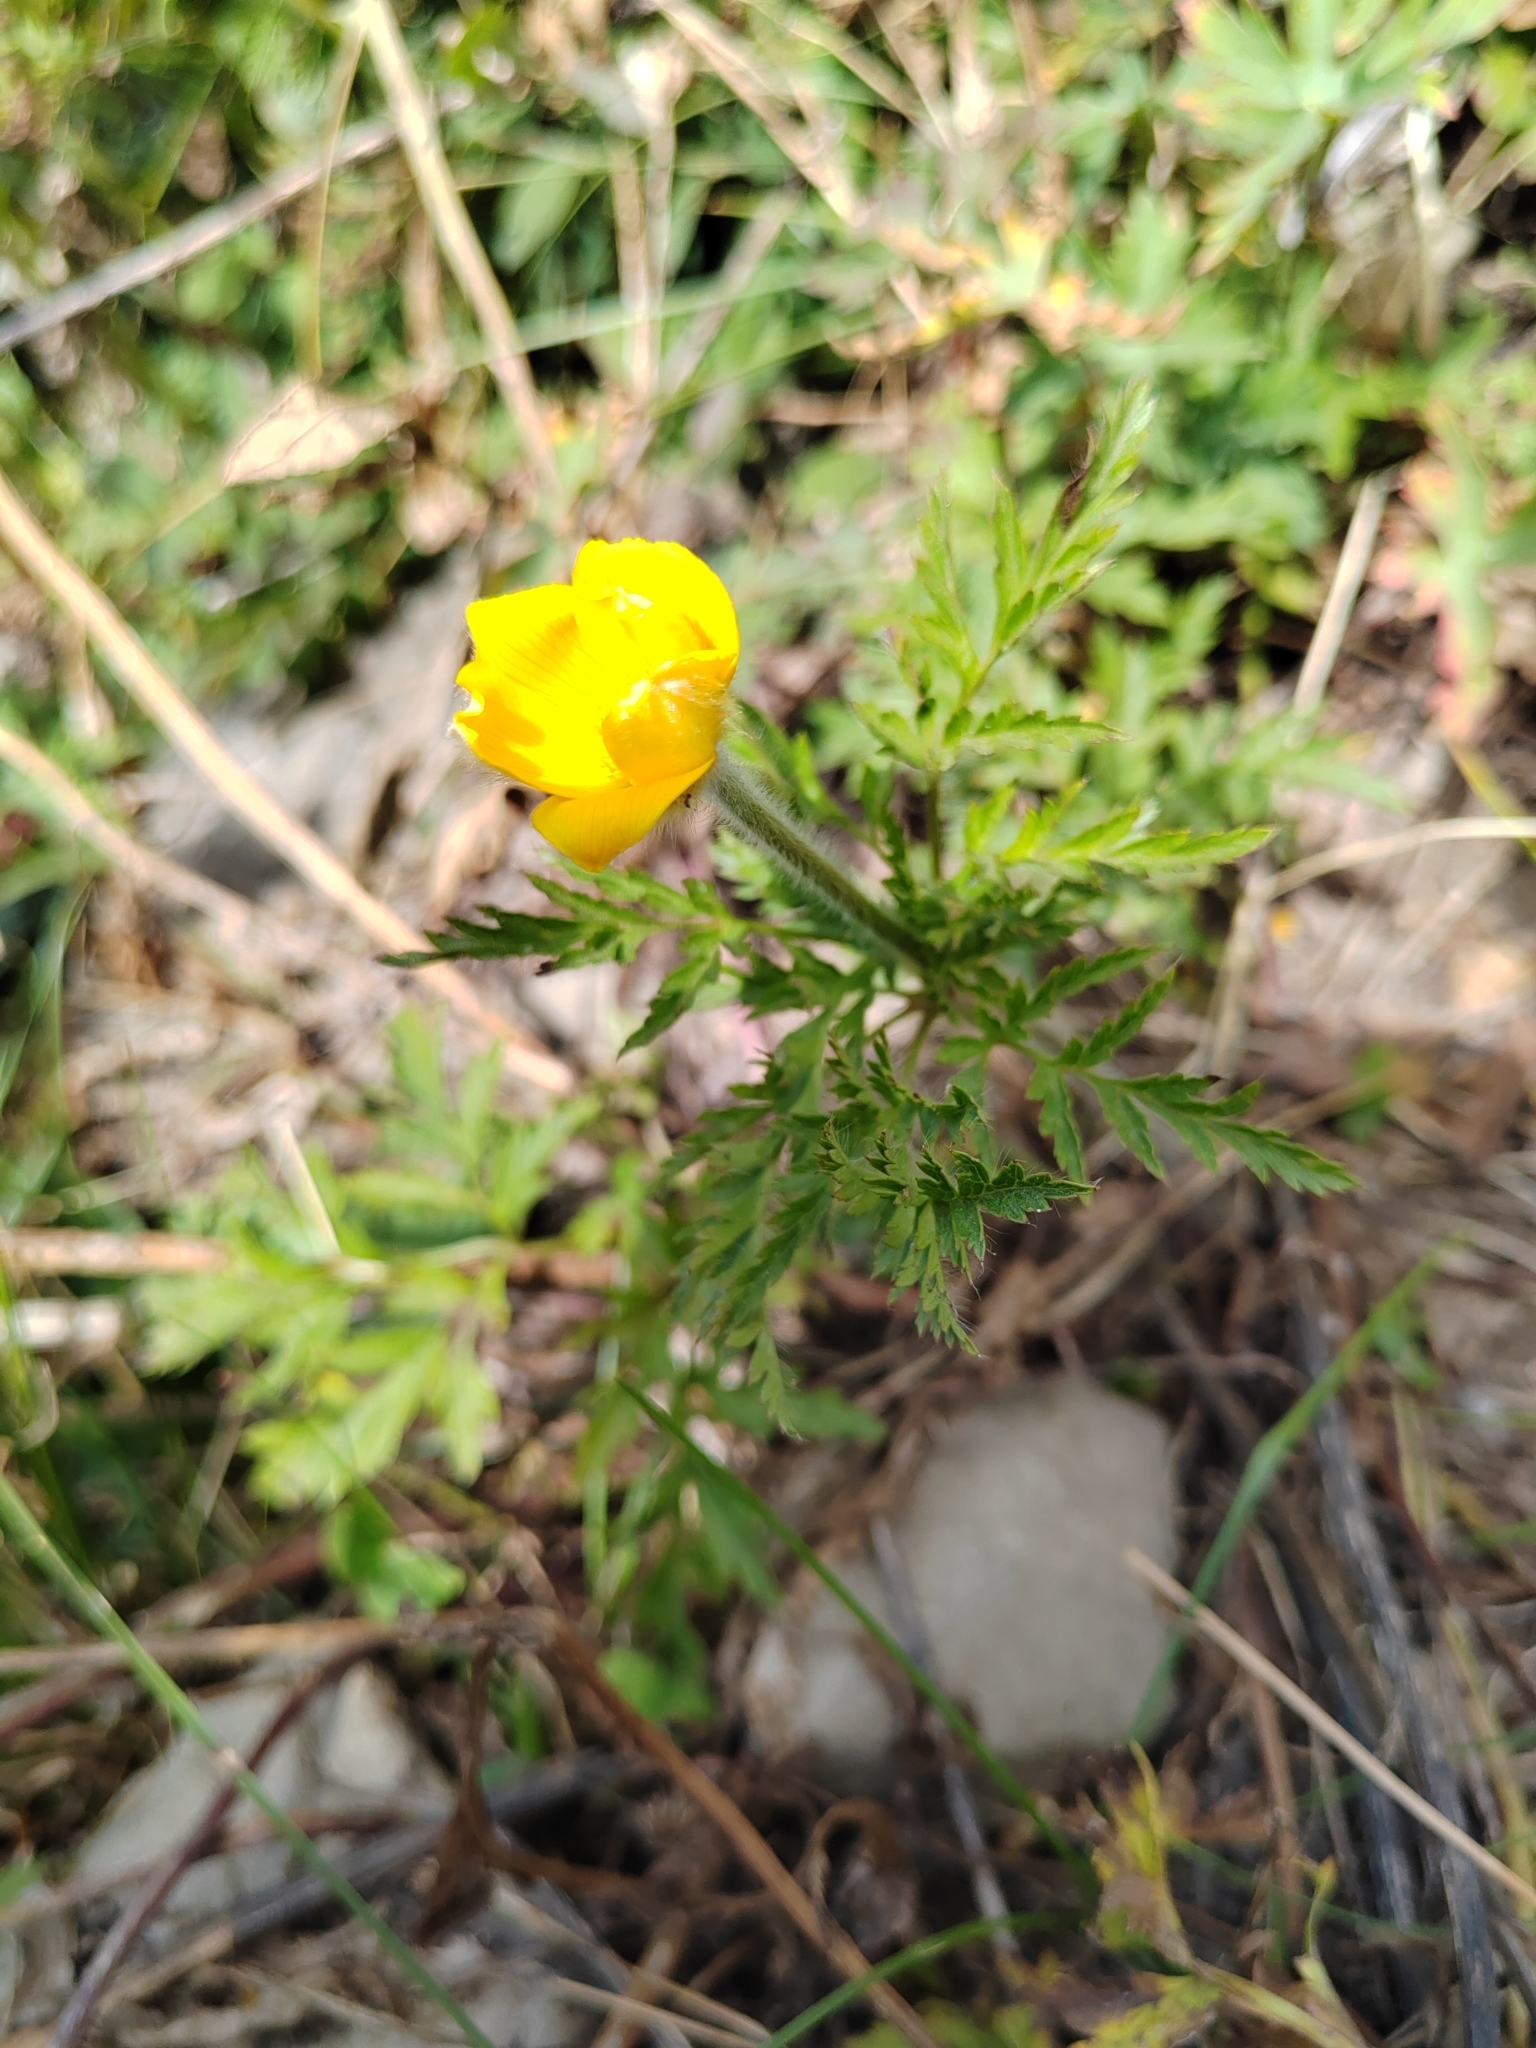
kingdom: Plantae
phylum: Tracheophyta
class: Magnoliopsida
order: Ranunculales
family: Ranunculaceae
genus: Pulsatilla
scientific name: Pulsatilla aurea
